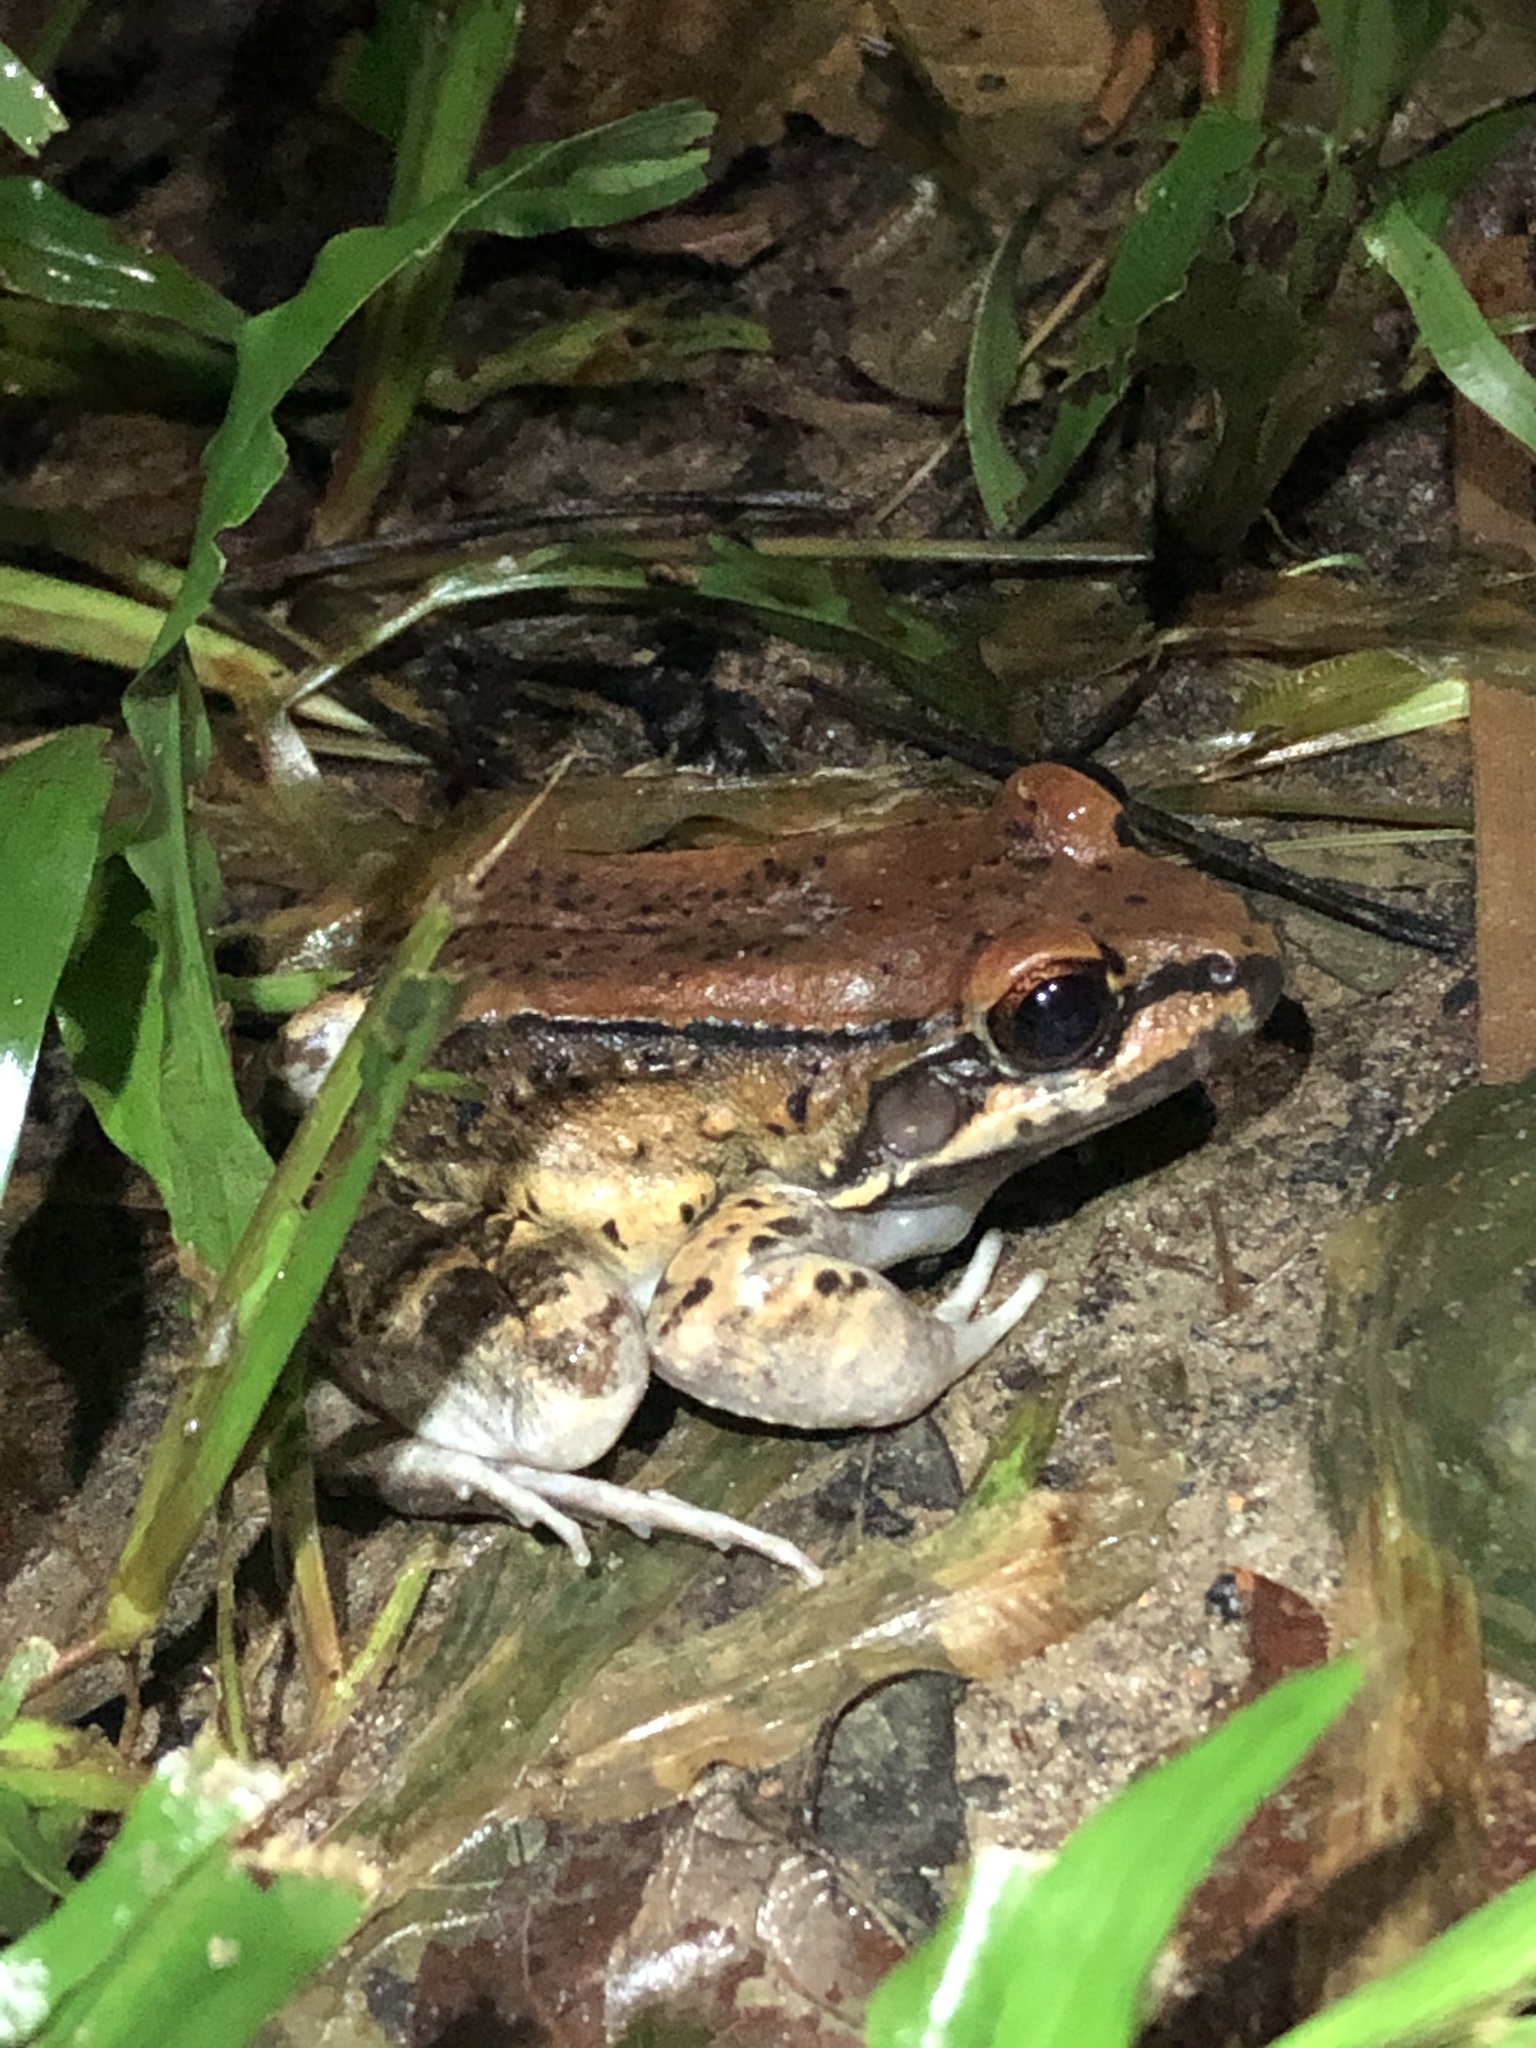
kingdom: Animalia
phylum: Chordata
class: Amphibia
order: Anura
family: Leptodactylidae
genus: Leptodactylus
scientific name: Leptodactylus rhodonotus
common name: Peru white-lipped frog
